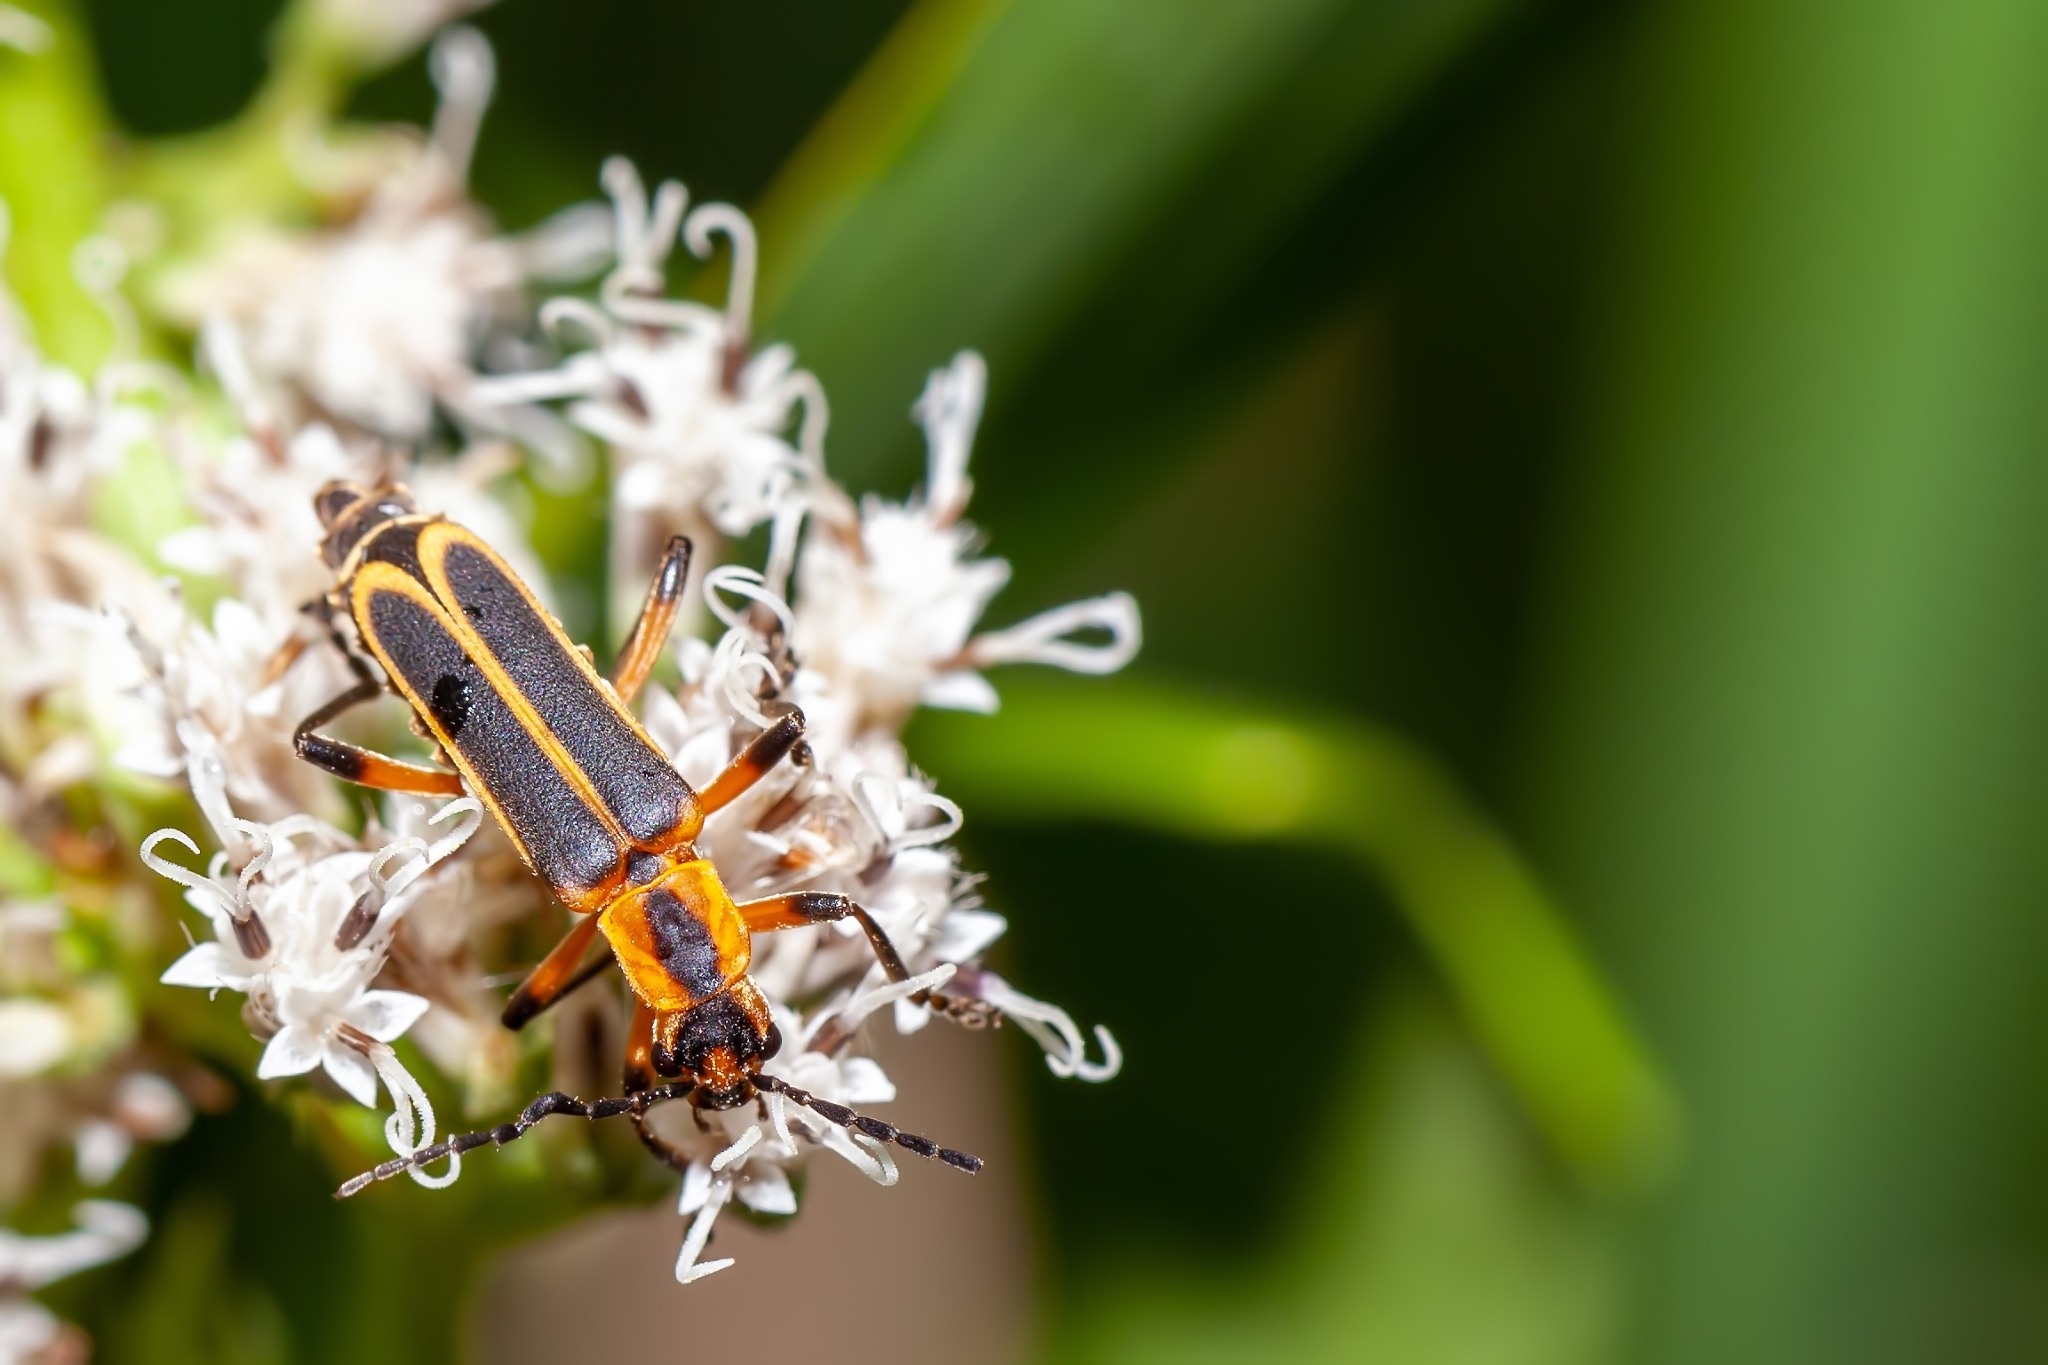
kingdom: Animalia
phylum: Arthropoda
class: Insecta
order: Coleoptera
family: Cantharidae
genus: Chauliognathus
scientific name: Chauliognathus marginatus
